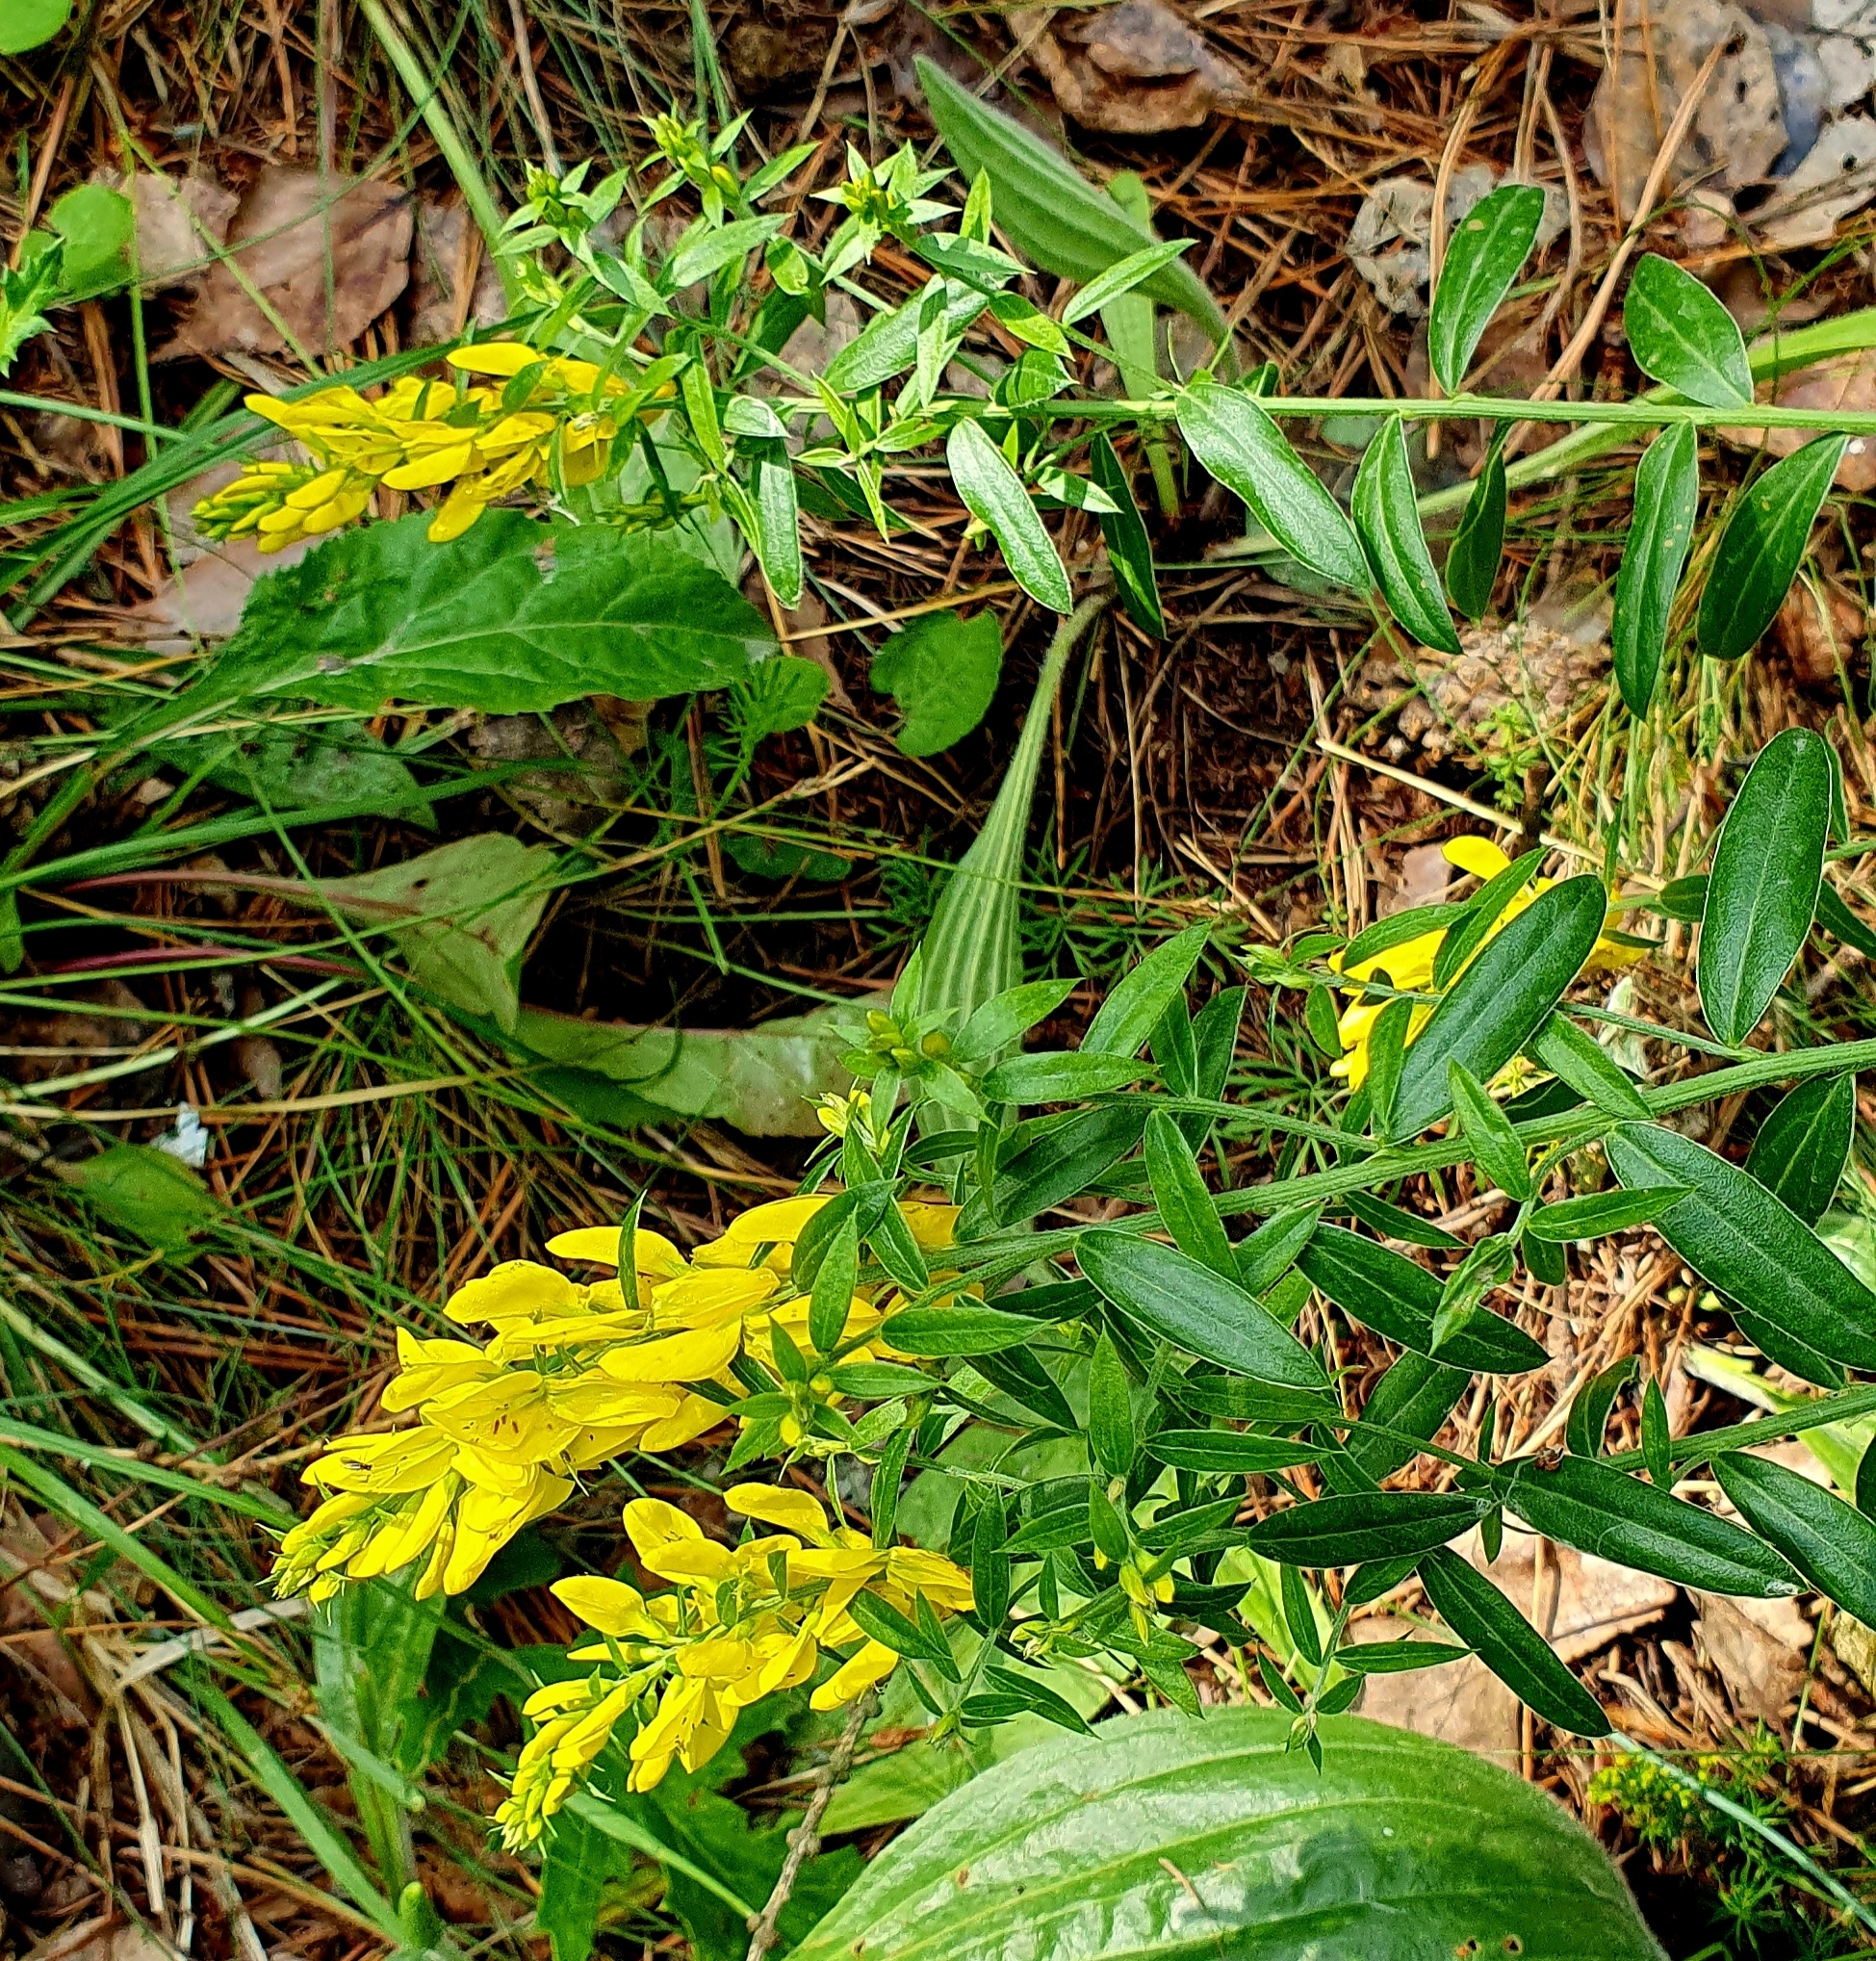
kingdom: Plantae
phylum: Tracheophyta
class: Magnoliopsida
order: Fabales
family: Fabaceae
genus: Genista
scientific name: Genista tinctoria
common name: Dyer's greenweed
